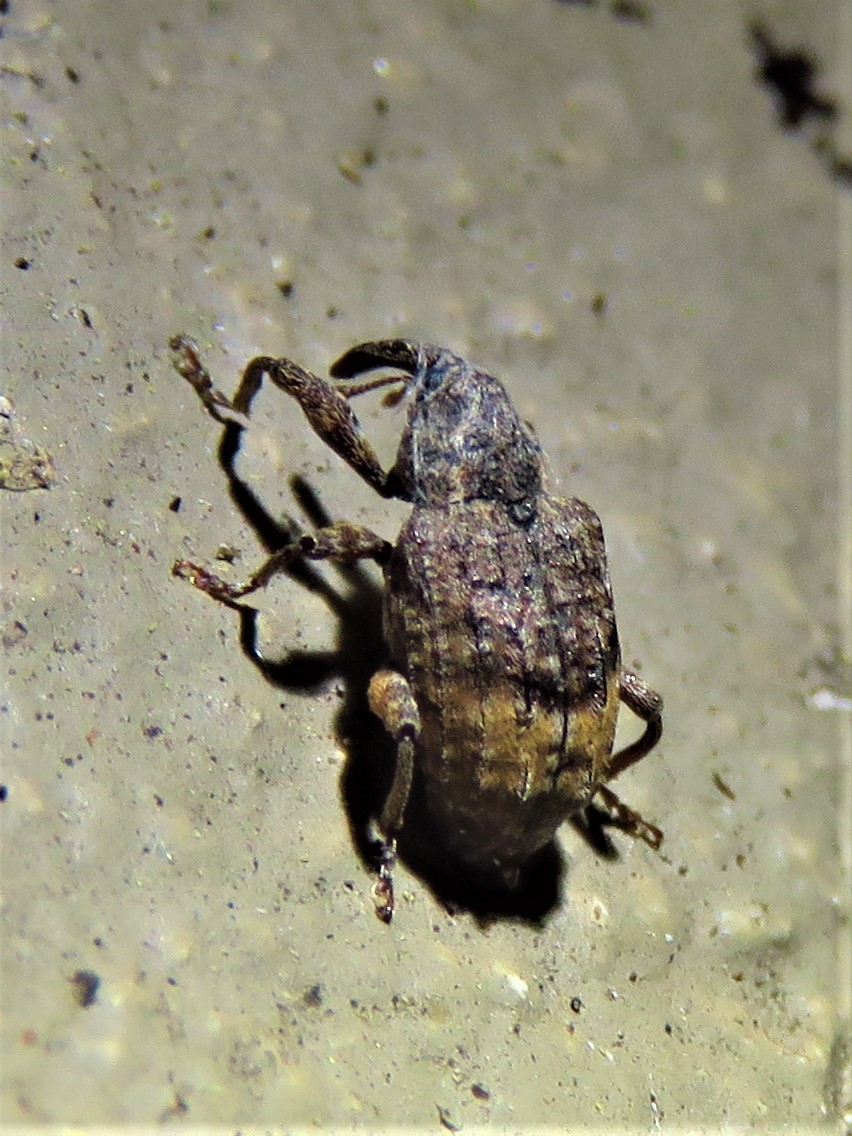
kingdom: Animalia
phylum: Arthropoda
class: Insecta
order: Coleoptera
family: Curculionidae
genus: Conotrachelus
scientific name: Conotrachelus elegans
